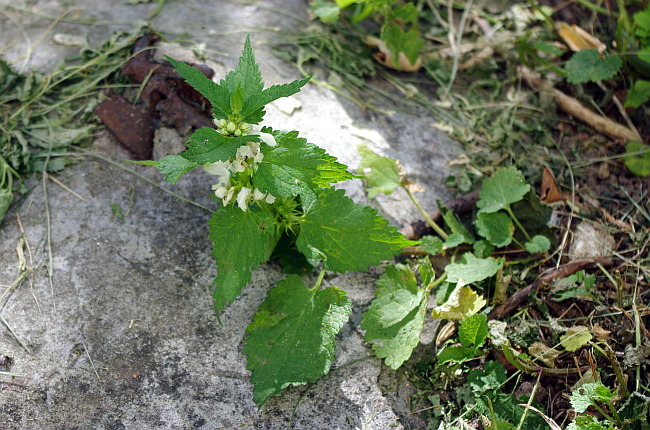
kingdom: Plantae
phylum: Tracheophyta
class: Magnoliopsida
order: Lamiales
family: Lamiaceae
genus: Lamium
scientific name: Lamium album
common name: White dead-nettle
